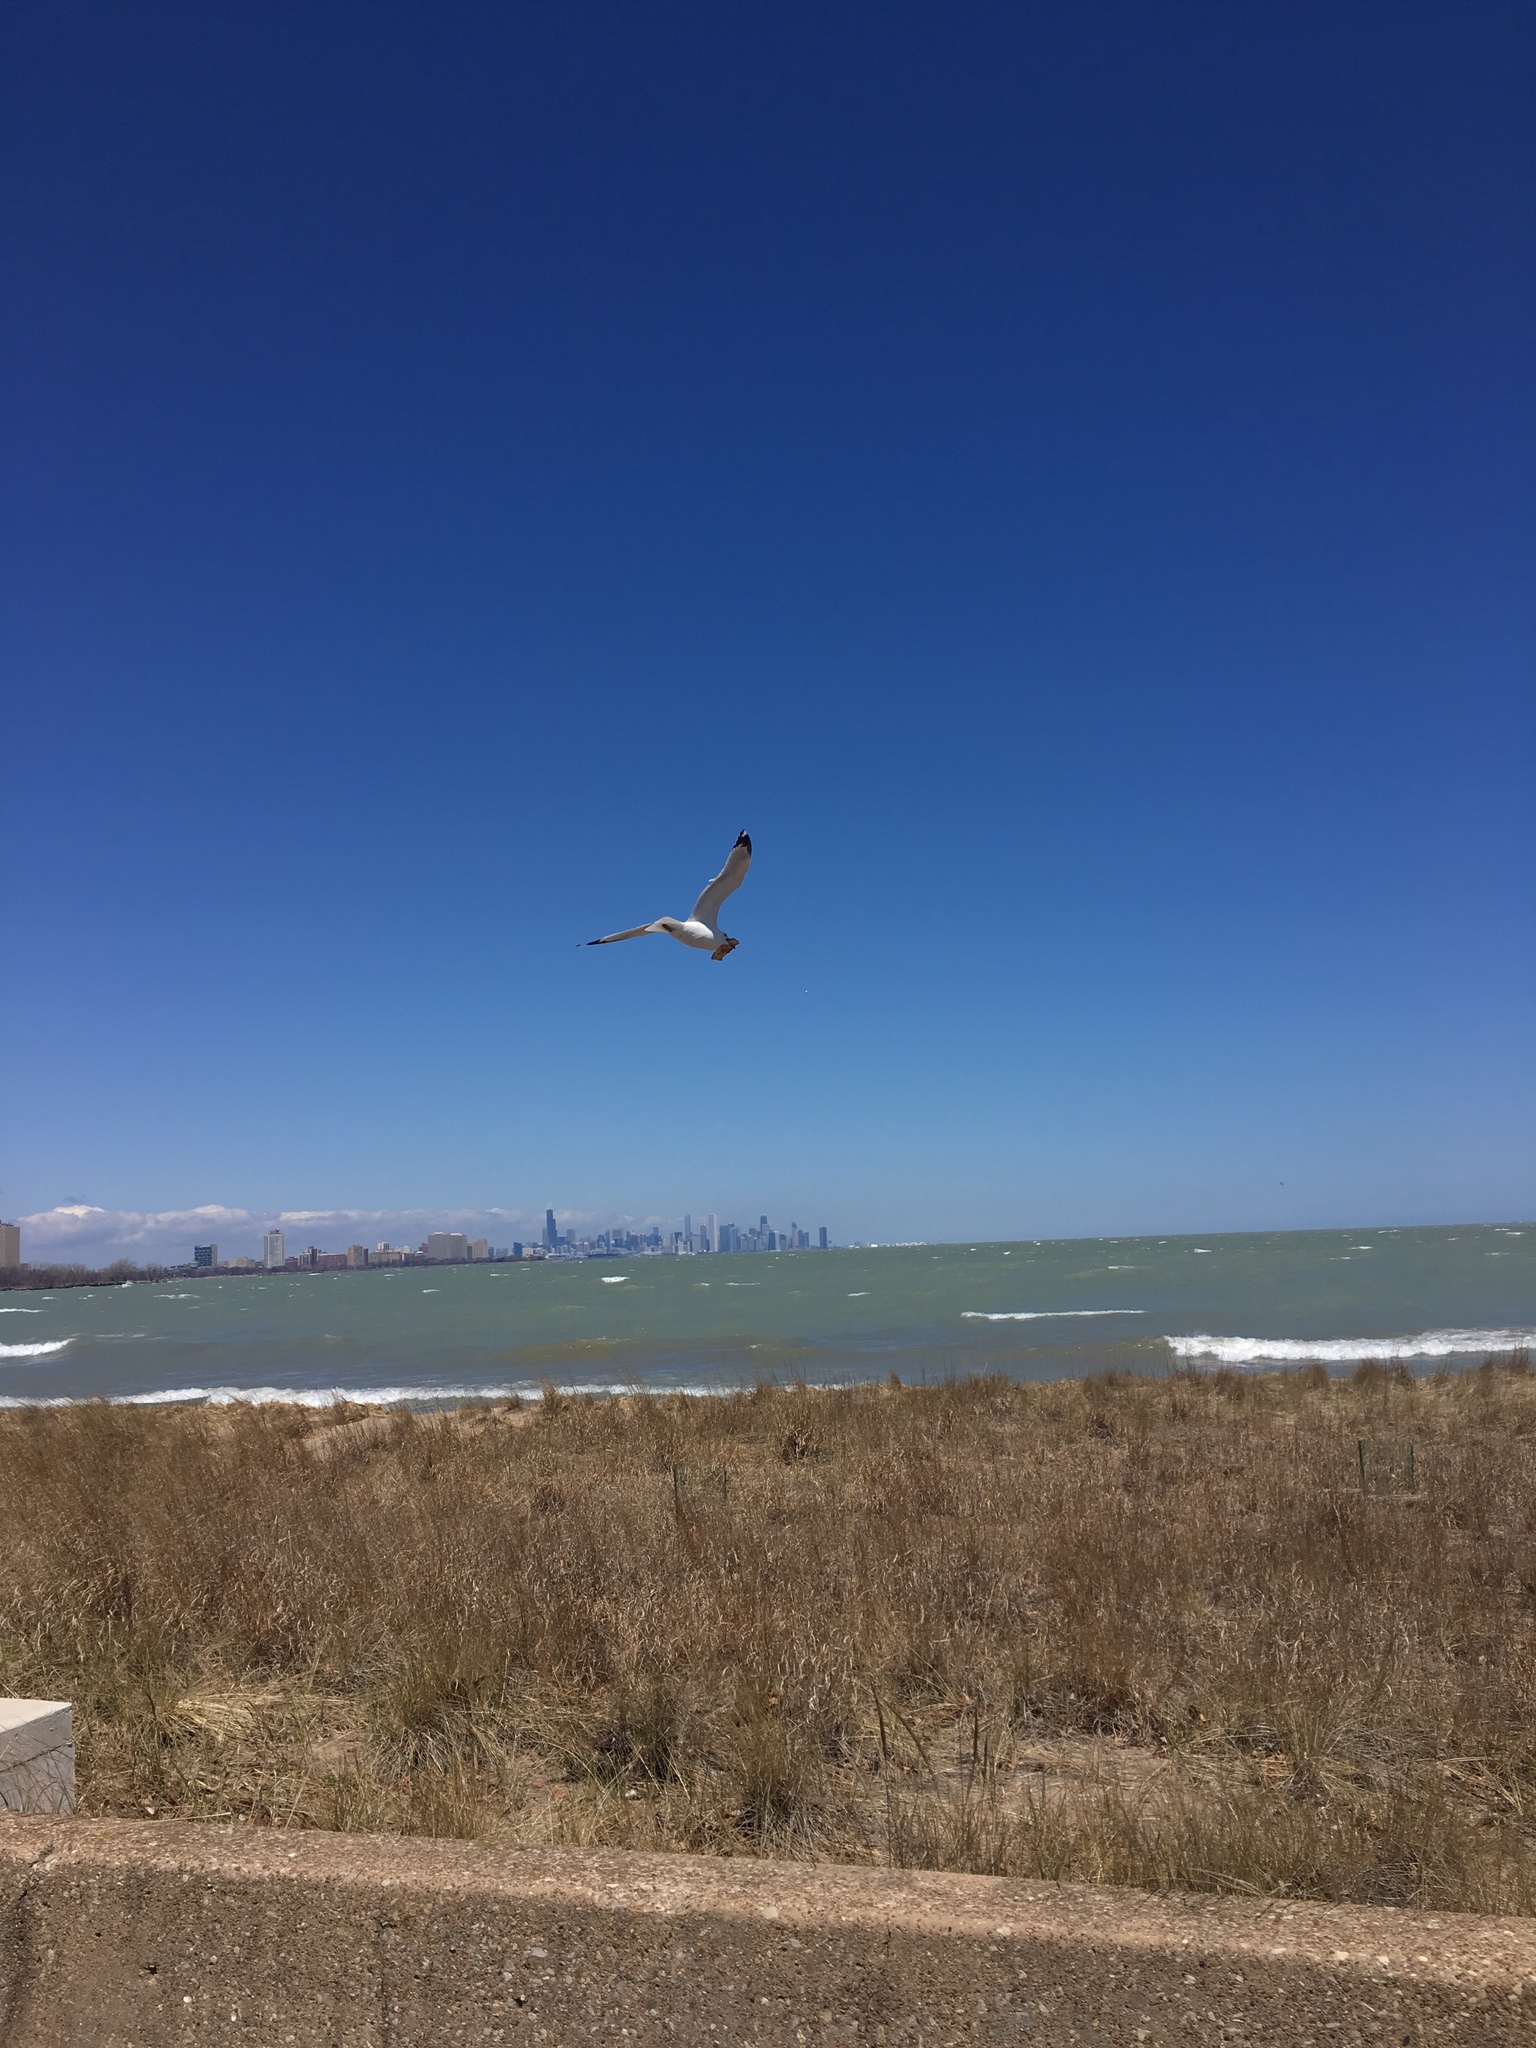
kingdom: Animalia
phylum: Chordata
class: Aves
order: Charadriiformes
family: Laridae
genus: Larus
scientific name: Larus delawarensis
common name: Ring-billed gull
